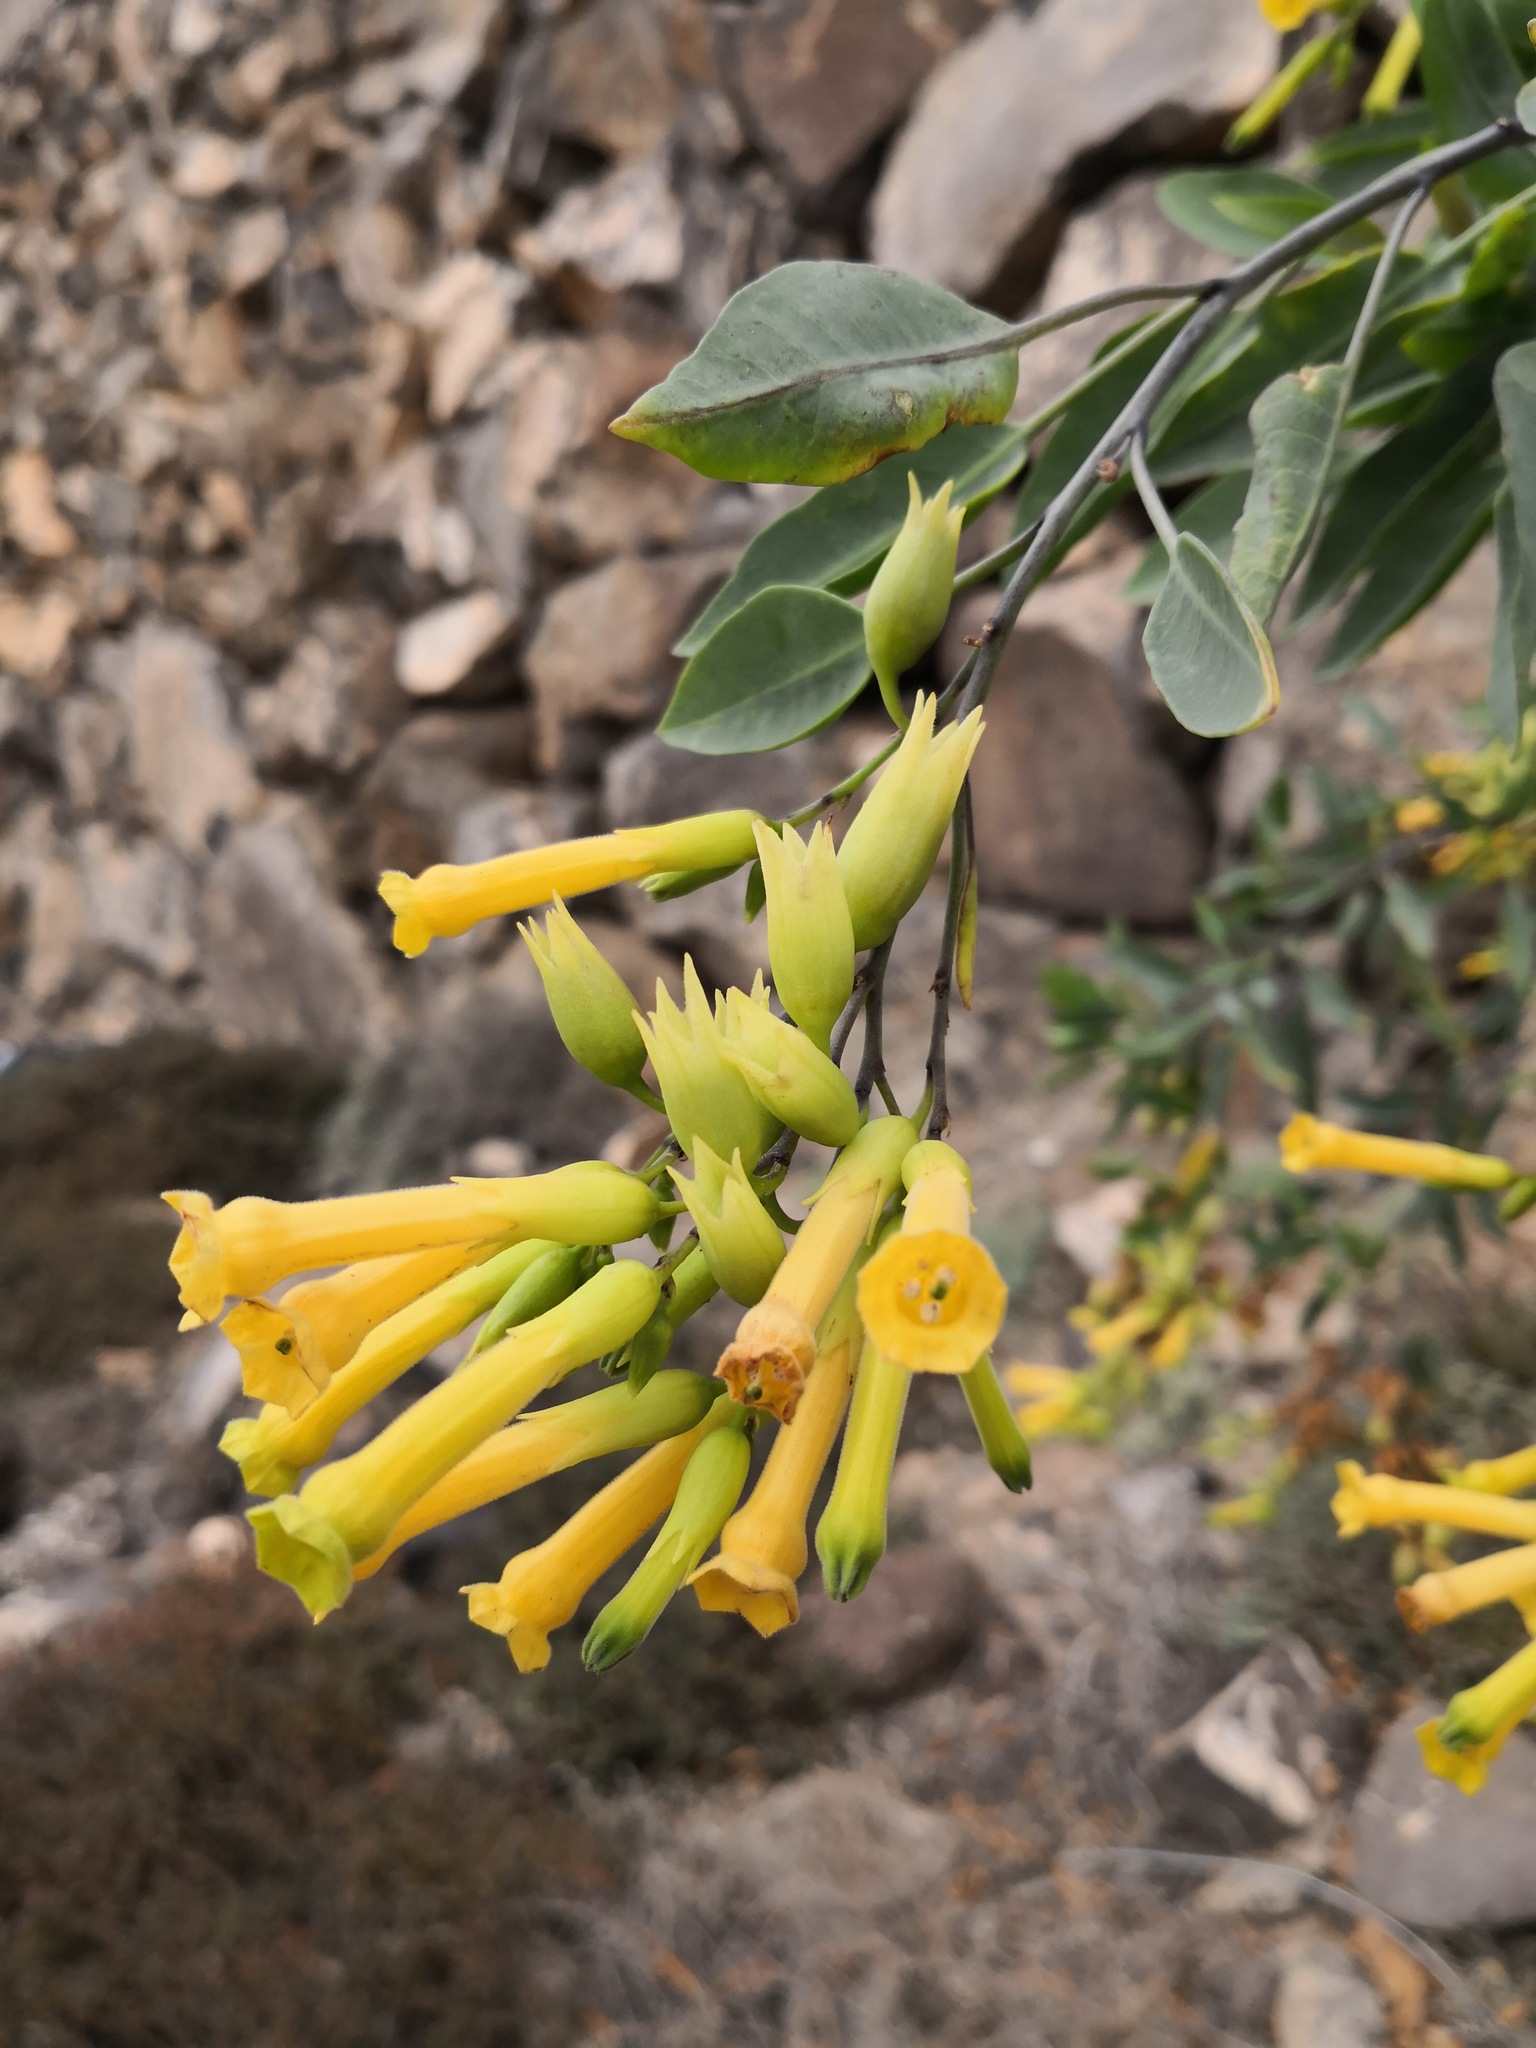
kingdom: Plantae
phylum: Tracheophyta
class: Magnoliopsida
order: Solanales
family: Solanaceae
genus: Nicotiana
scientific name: Nicotiana glauca
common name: Tree tobacco
